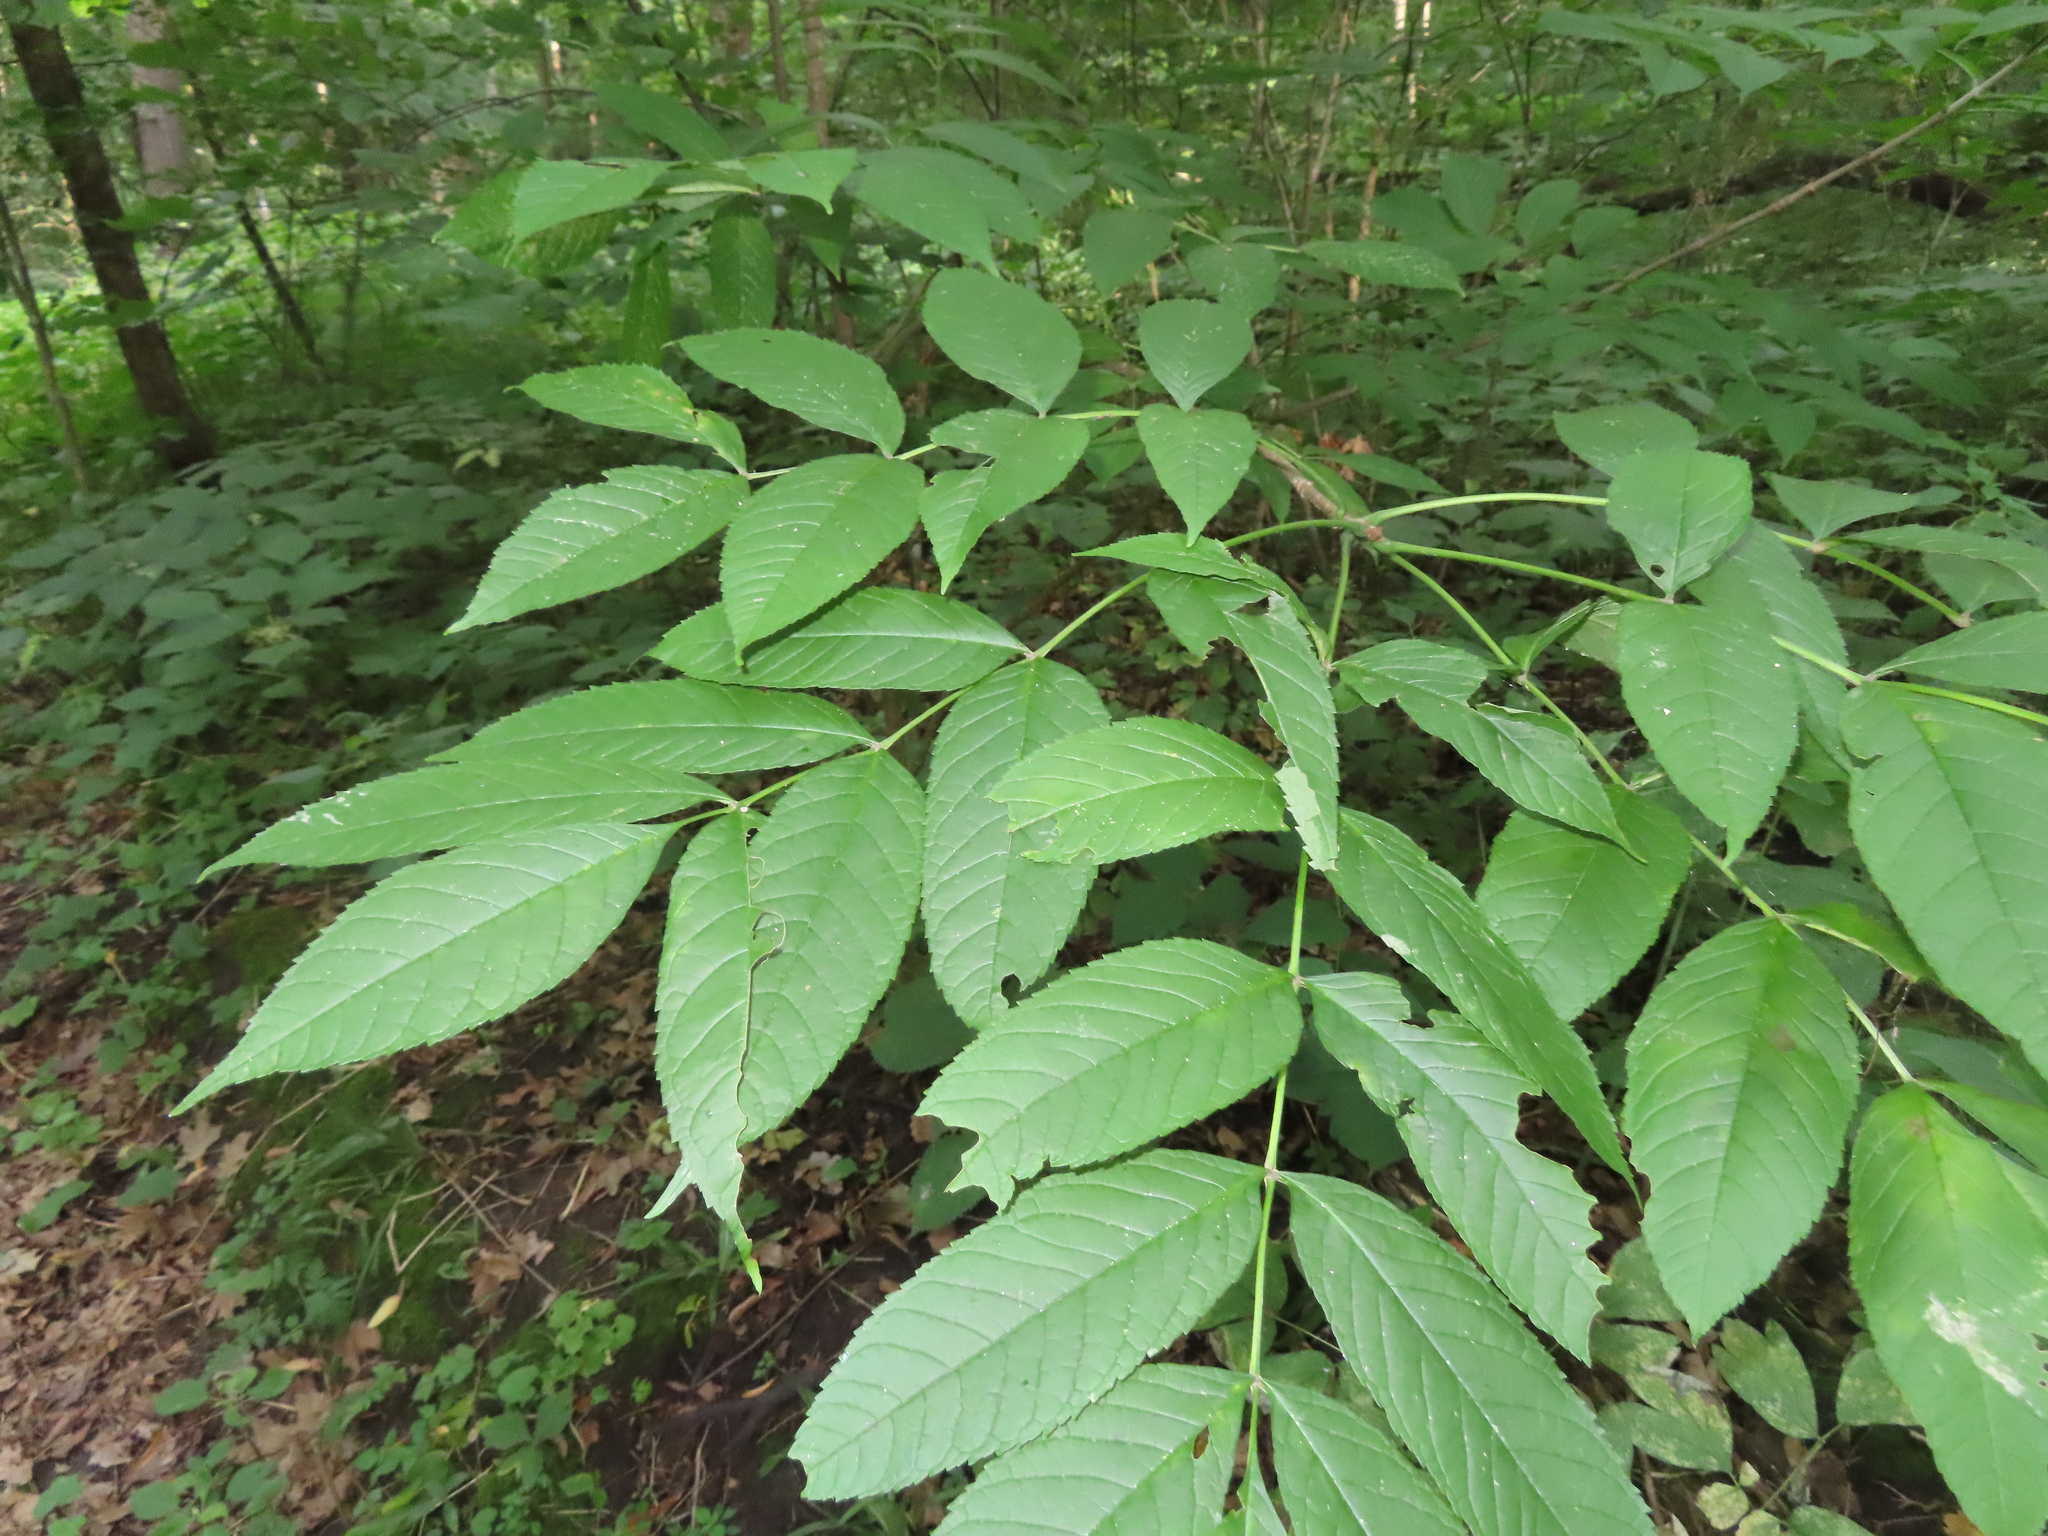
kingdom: Plantae
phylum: Tracheophyta
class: Magnoliopsida
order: Lamiales
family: Oleaceae
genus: Fraxinus
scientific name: Fraxinus nigra
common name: Black ash
